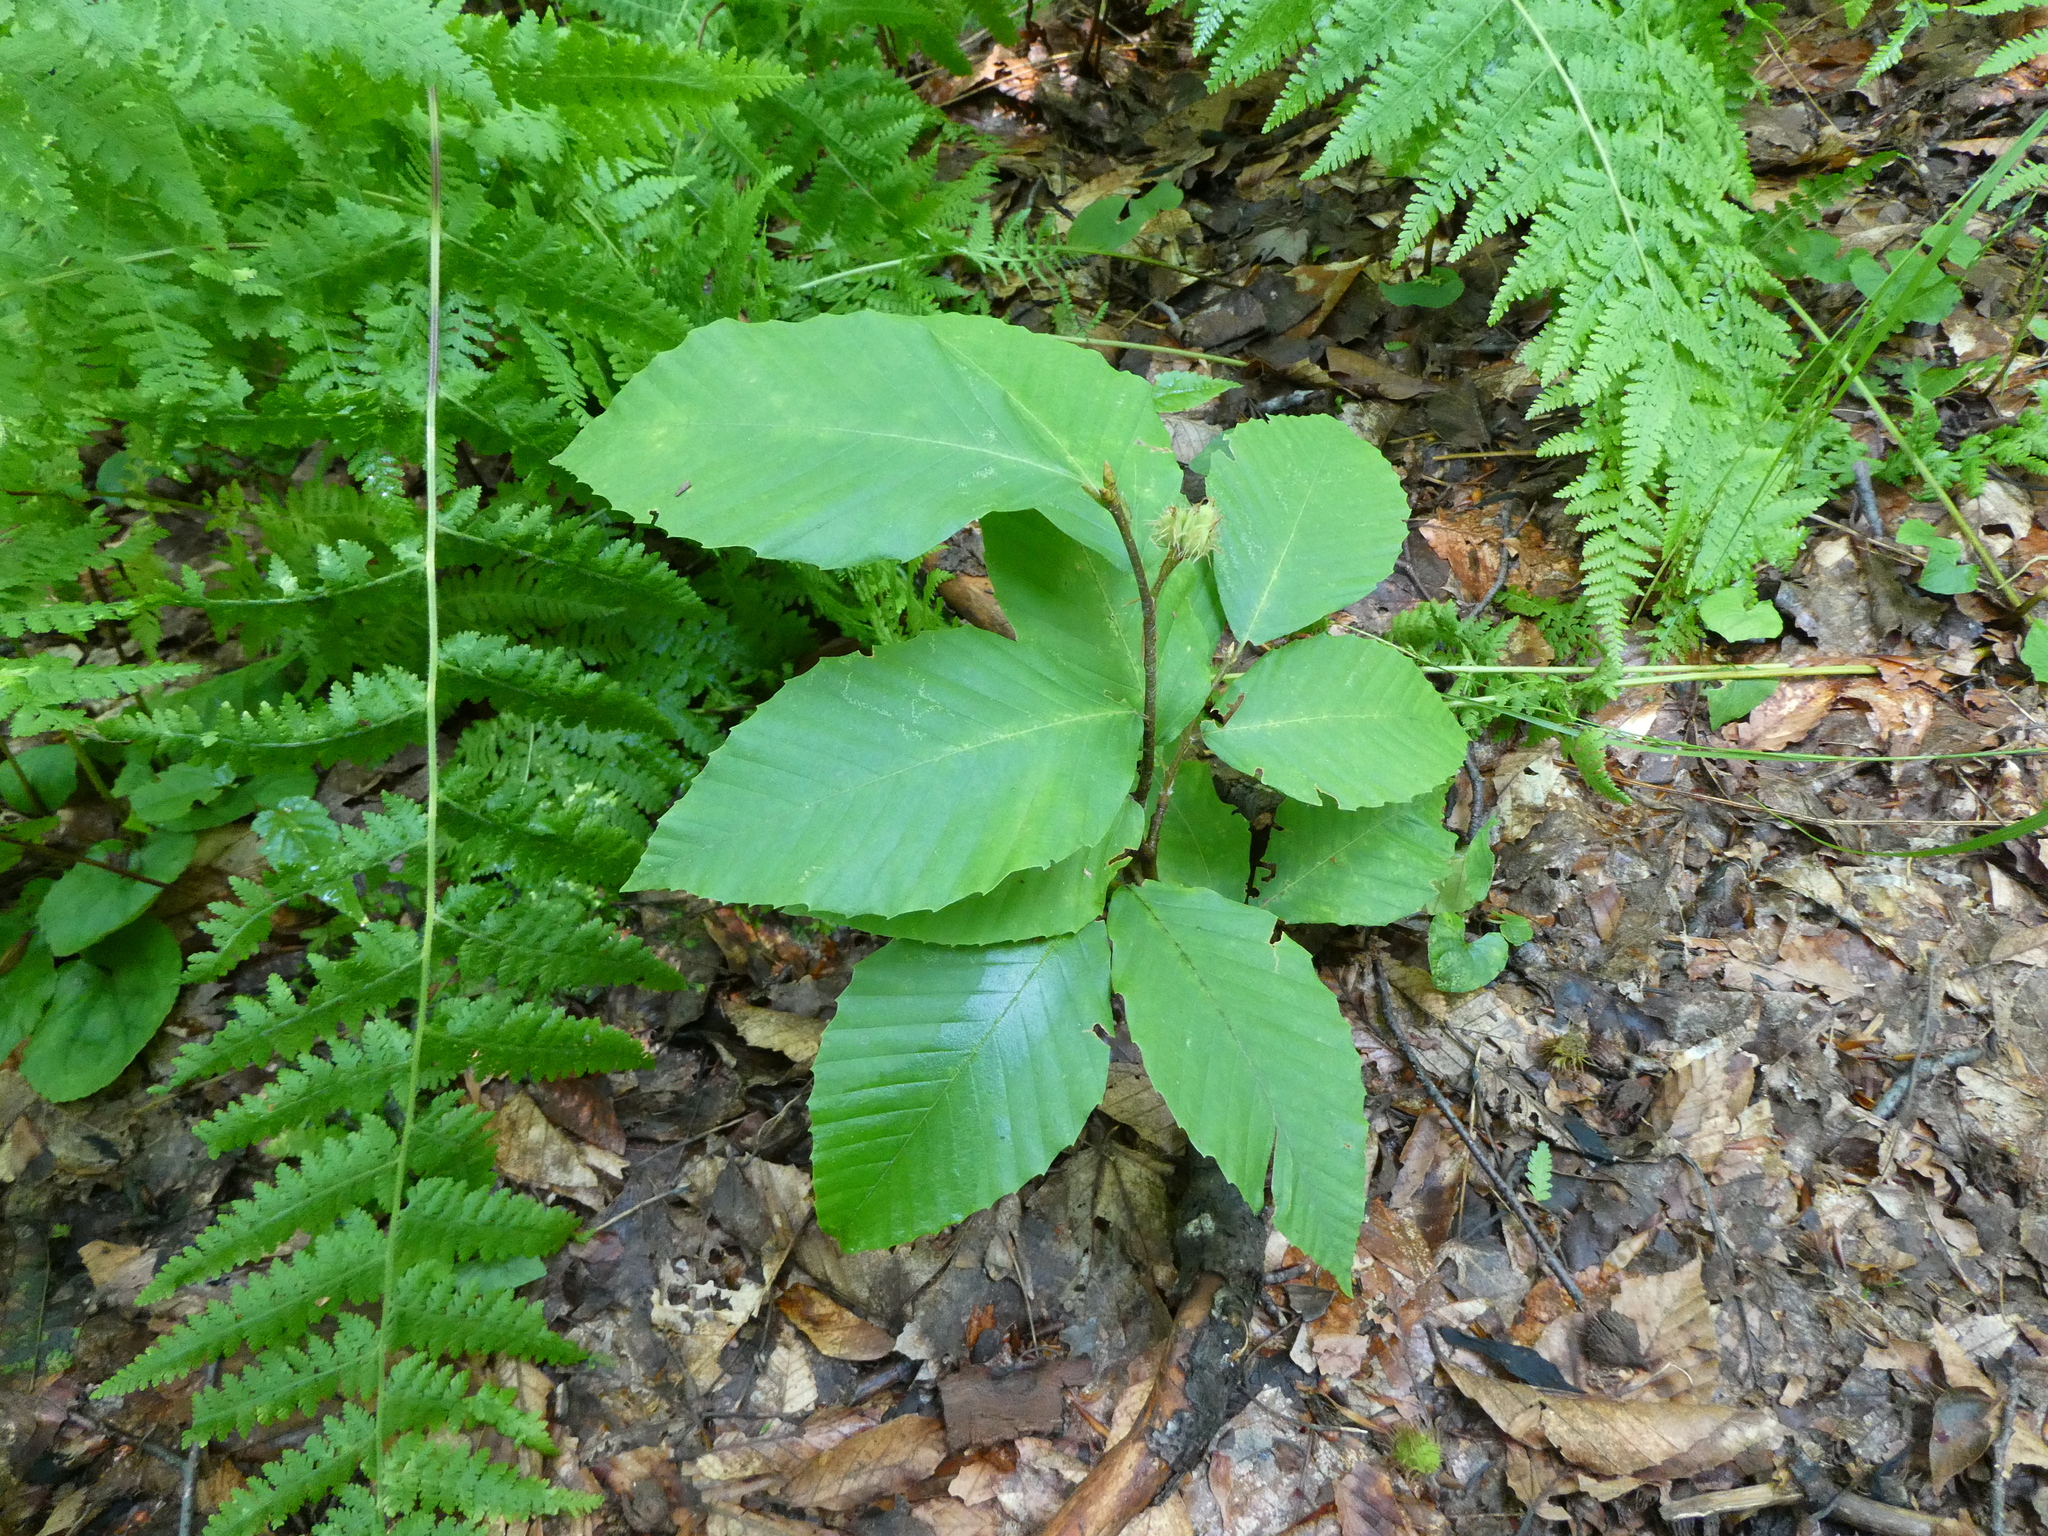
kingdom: Plantae
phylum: Tracheophyta
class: Magnoliopsida
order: Fagales
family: Fagaceae
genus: Fagus
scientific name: Fagus grandifolia
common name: American beech
